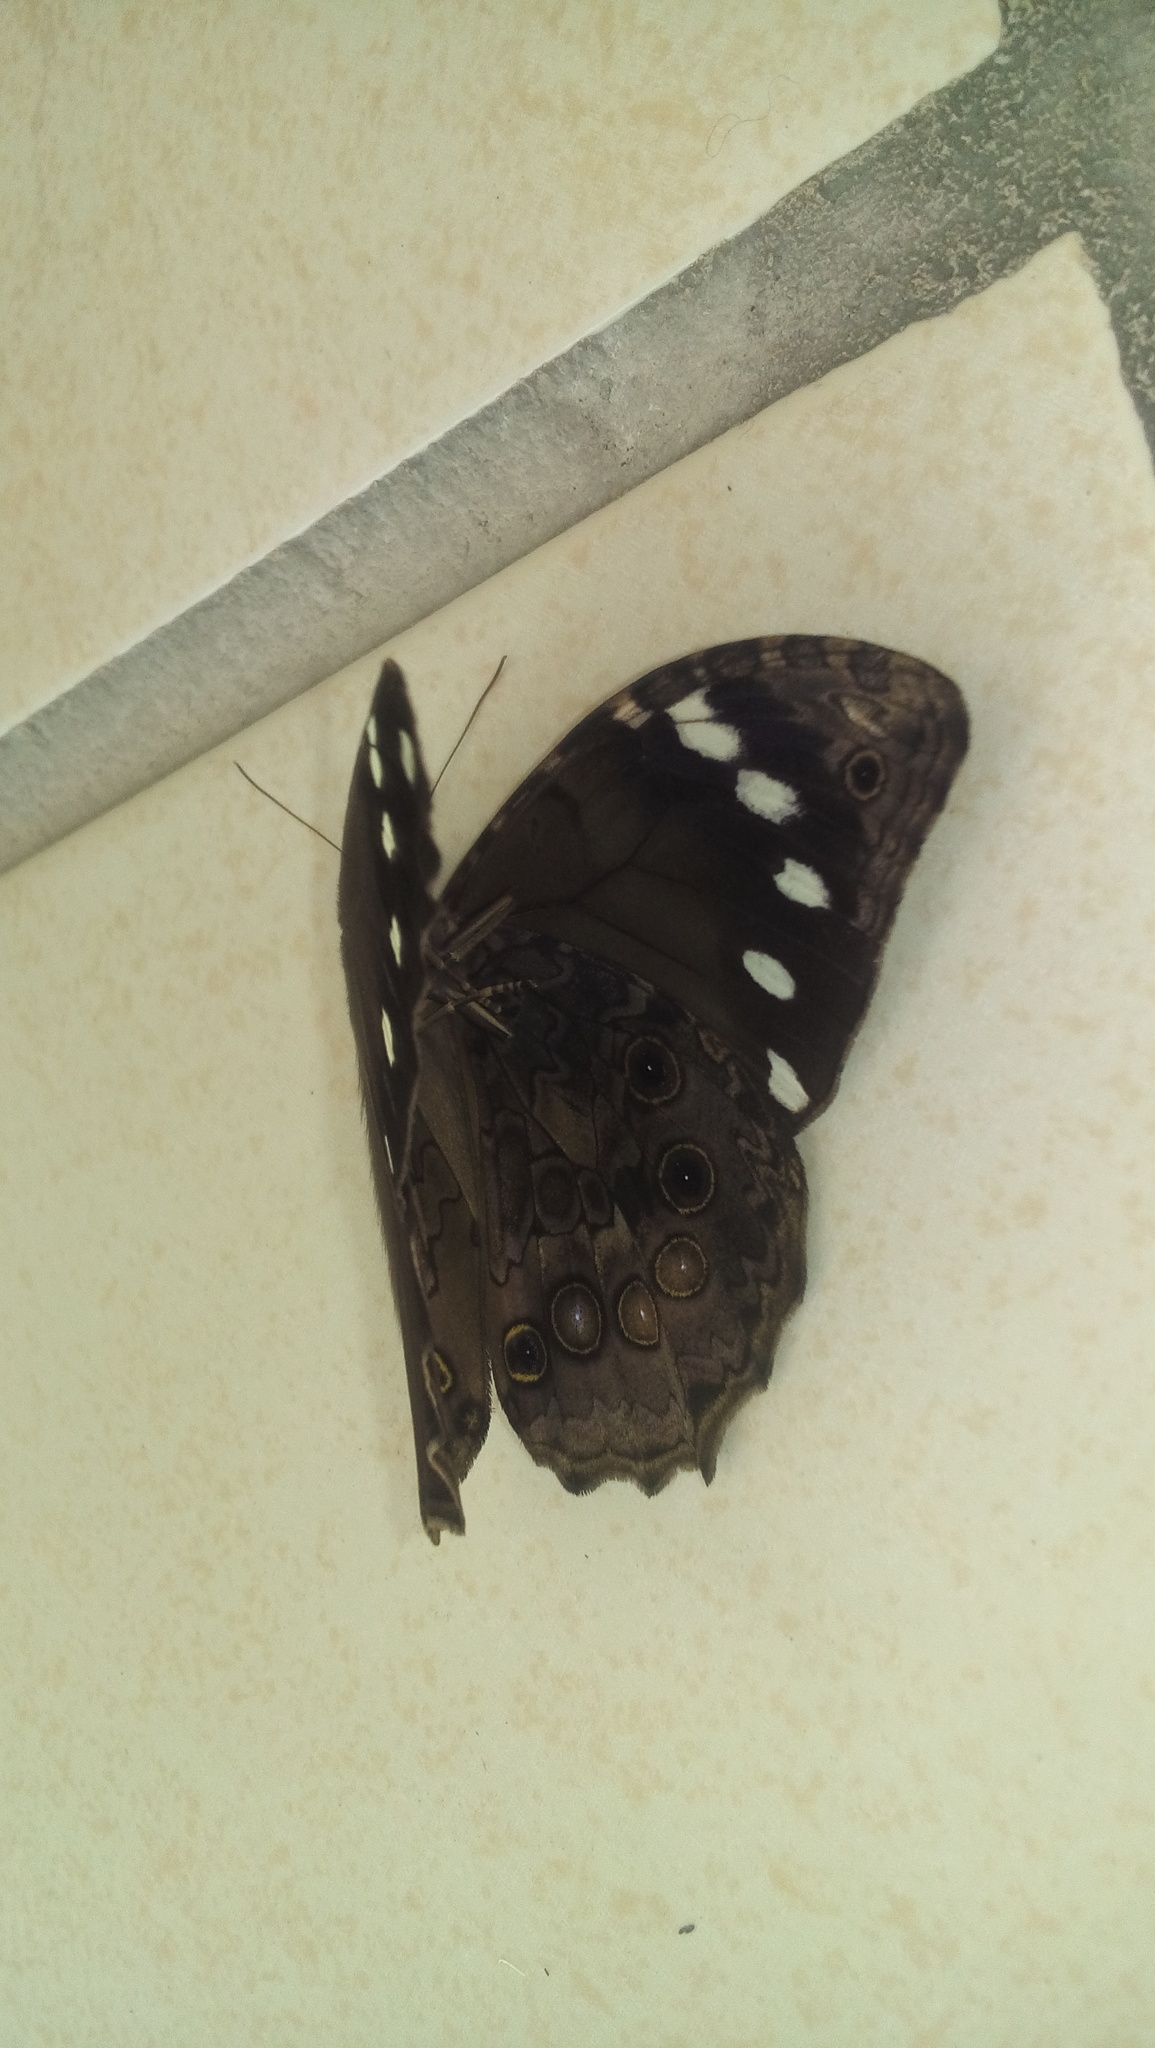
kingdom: Animalia
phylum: Arthropoda
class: Insecta
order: Lepidoptera
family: Nymphalidae
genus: Manataria
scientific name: Manataria maculata
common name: White-spotted satyr
